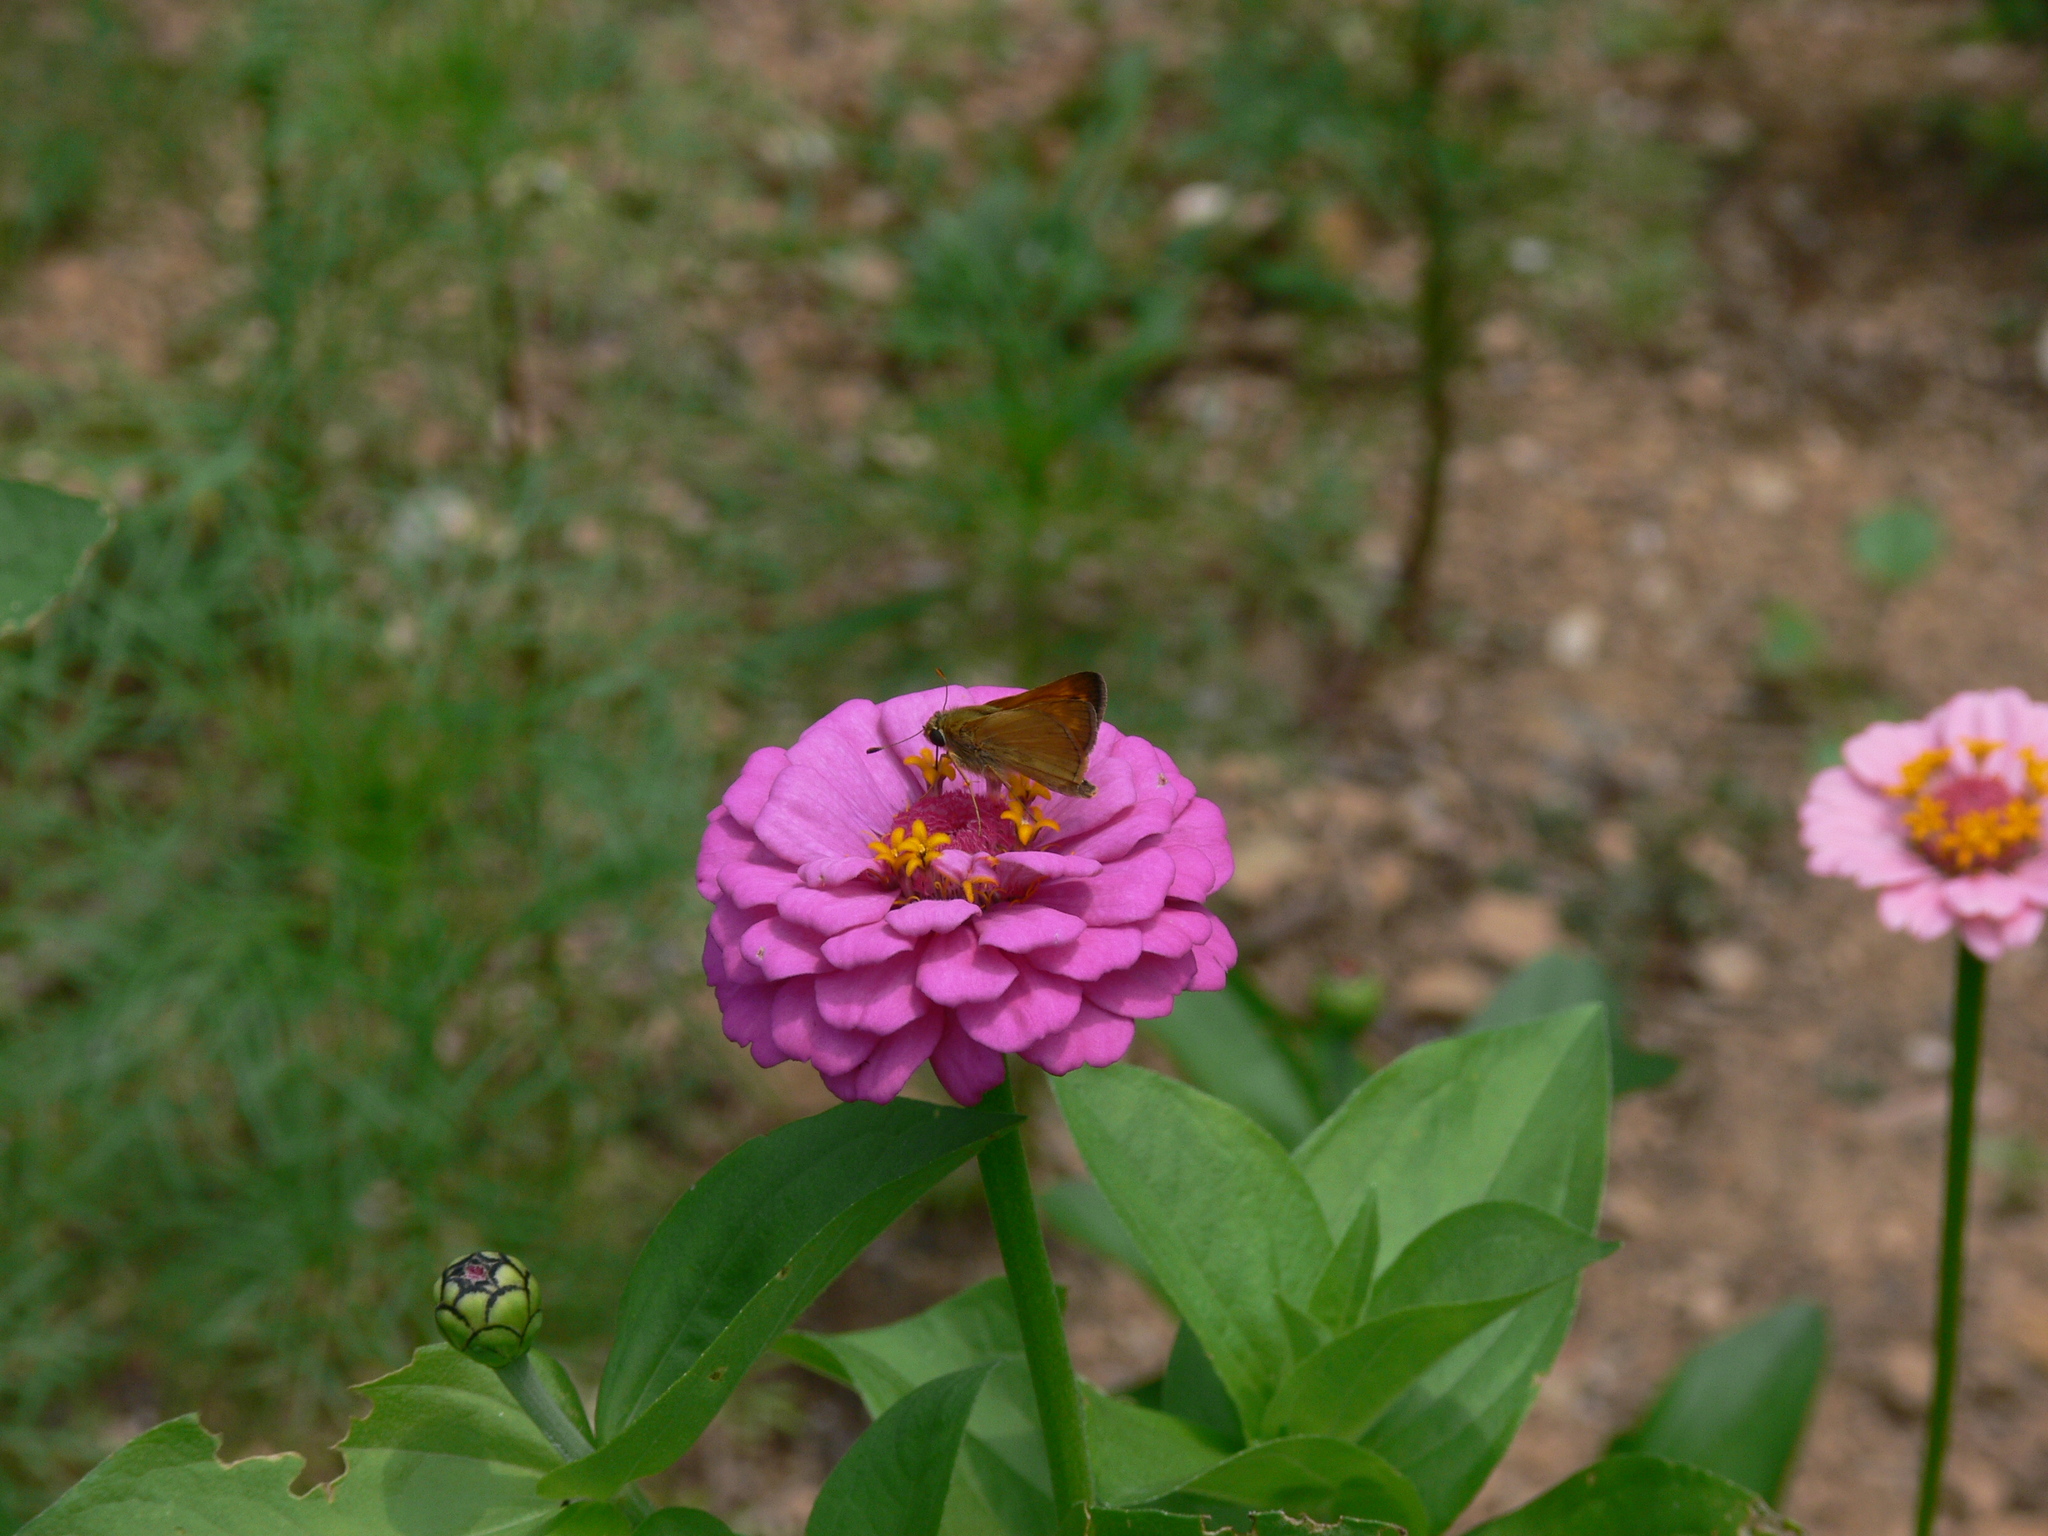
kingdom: Animalia
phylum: Arthropoda
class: Insecta
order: Lepidoptera
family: Hesperiidae
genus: Atalopedes
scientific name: Atalopedes
